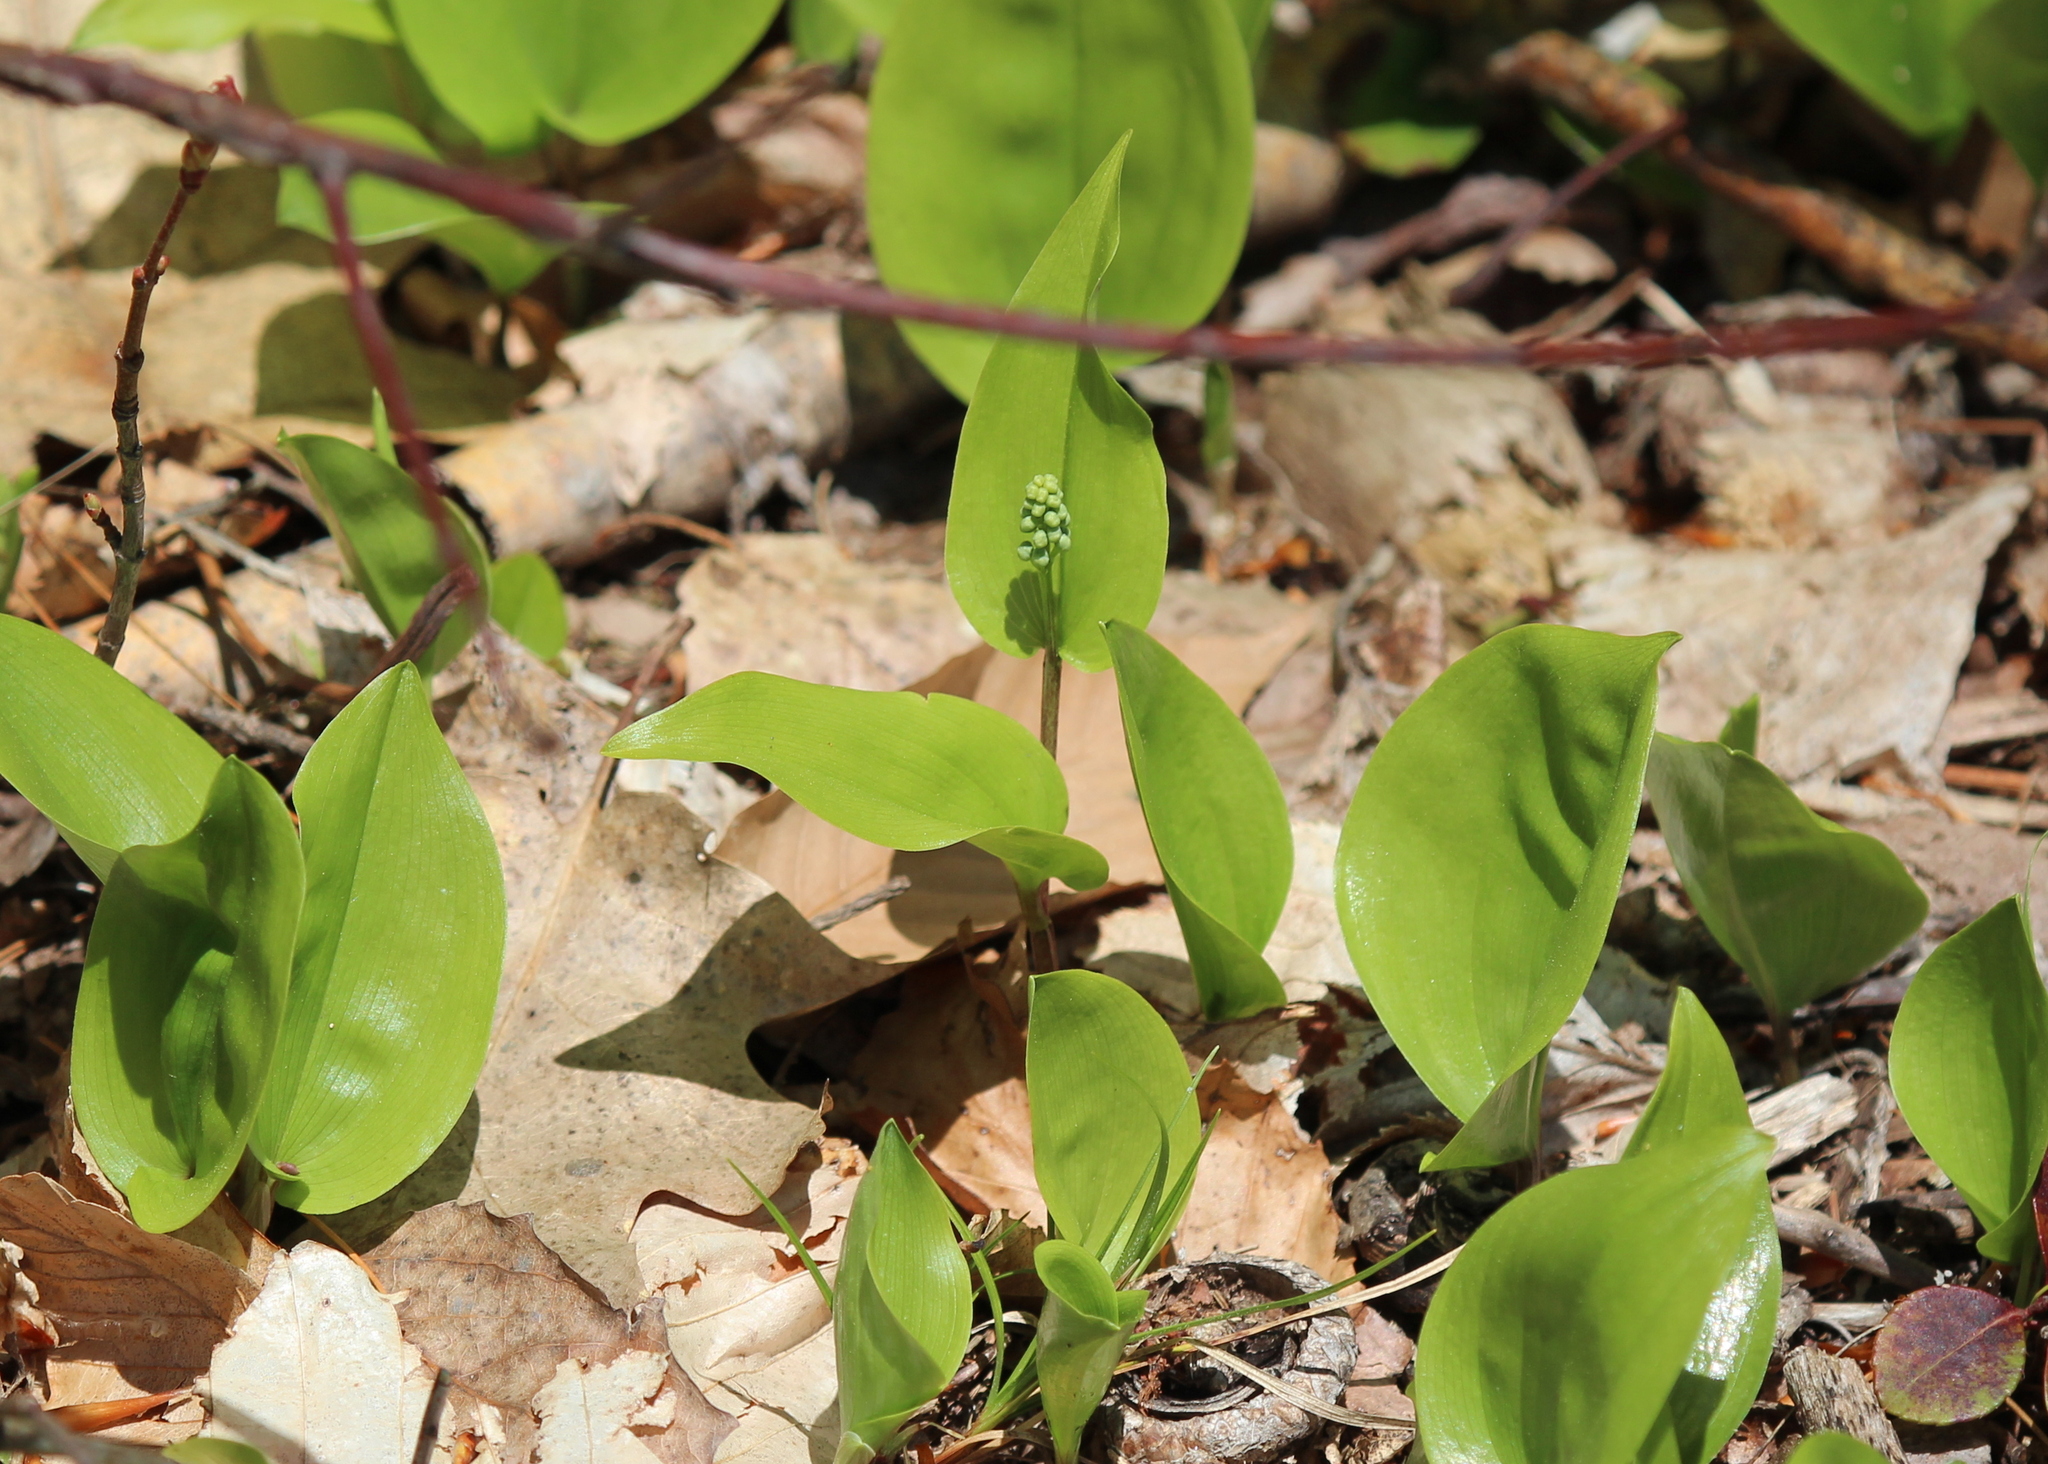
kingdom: Plantae
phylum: Tracheophyta
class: Liliopsida
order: Asparagales
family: Asparagaceae
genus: Maianthemum
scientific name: Maianthemum canadense
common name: False lily-of-the-valley
